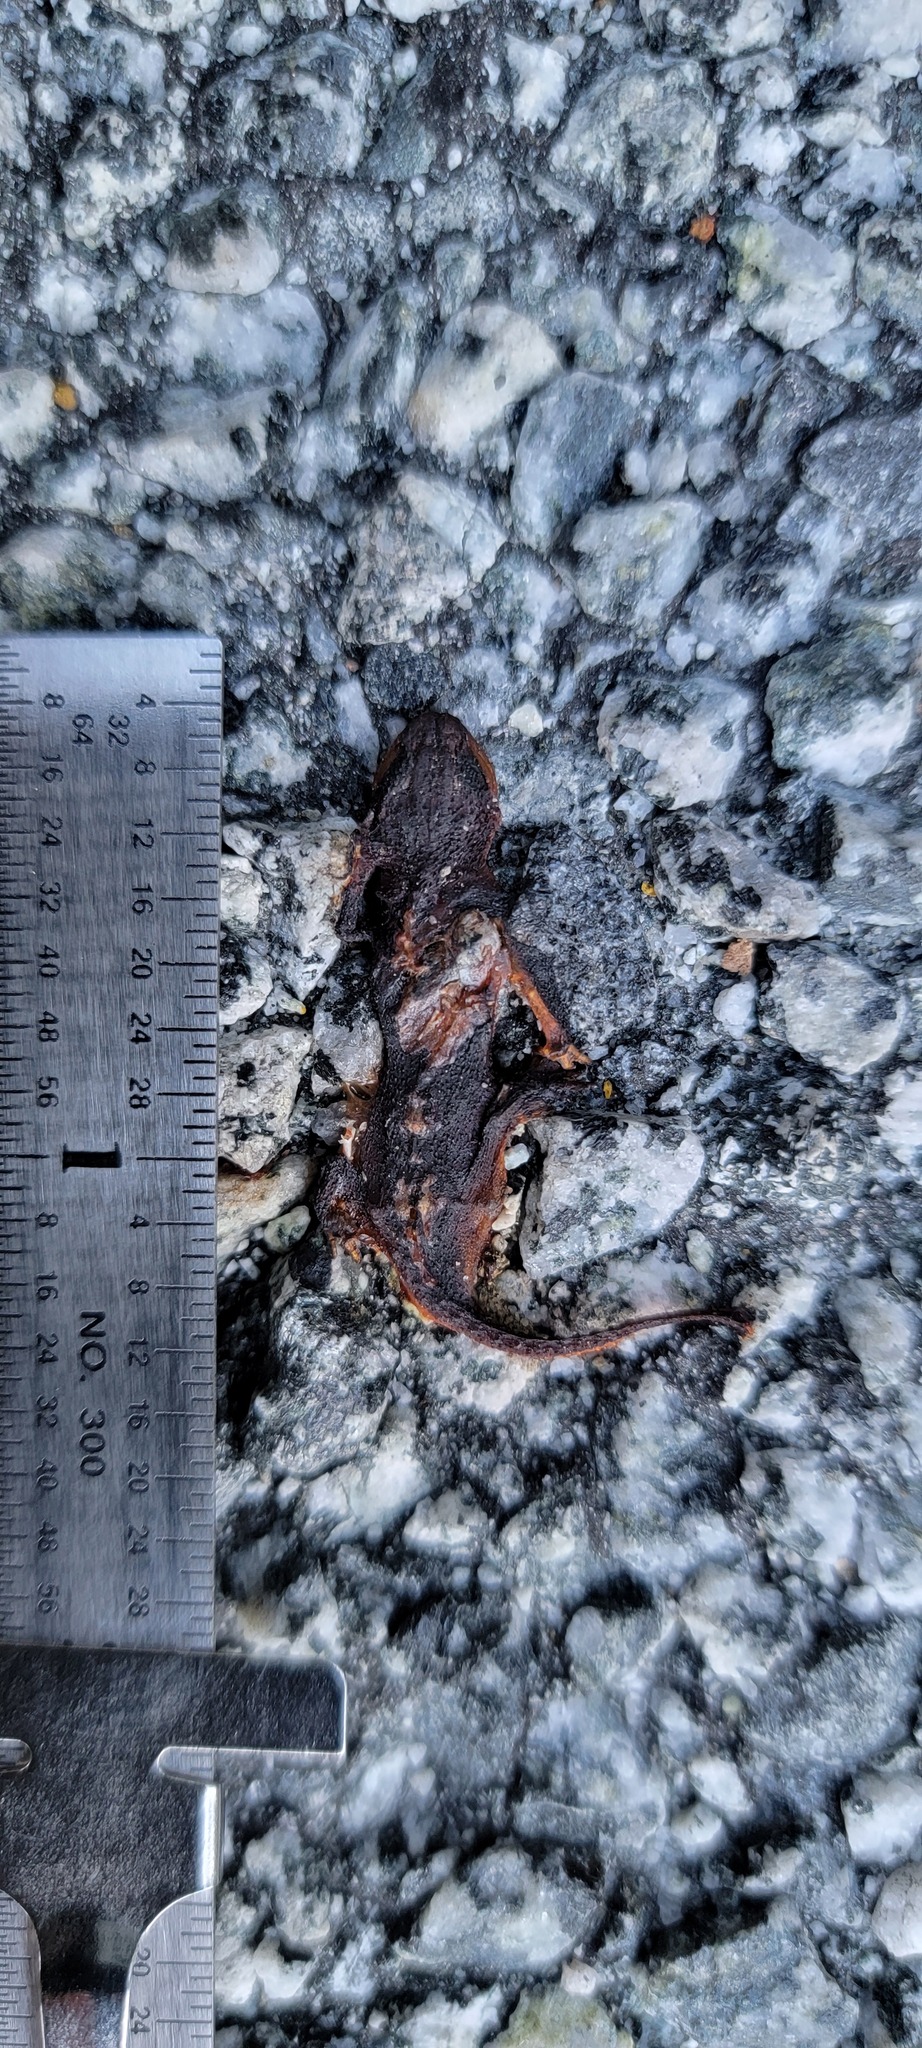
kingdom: Animalia
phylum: Chordata
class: Amphibia
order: Caudata
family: Salamandridae
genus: Taricha
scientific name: Taricha
